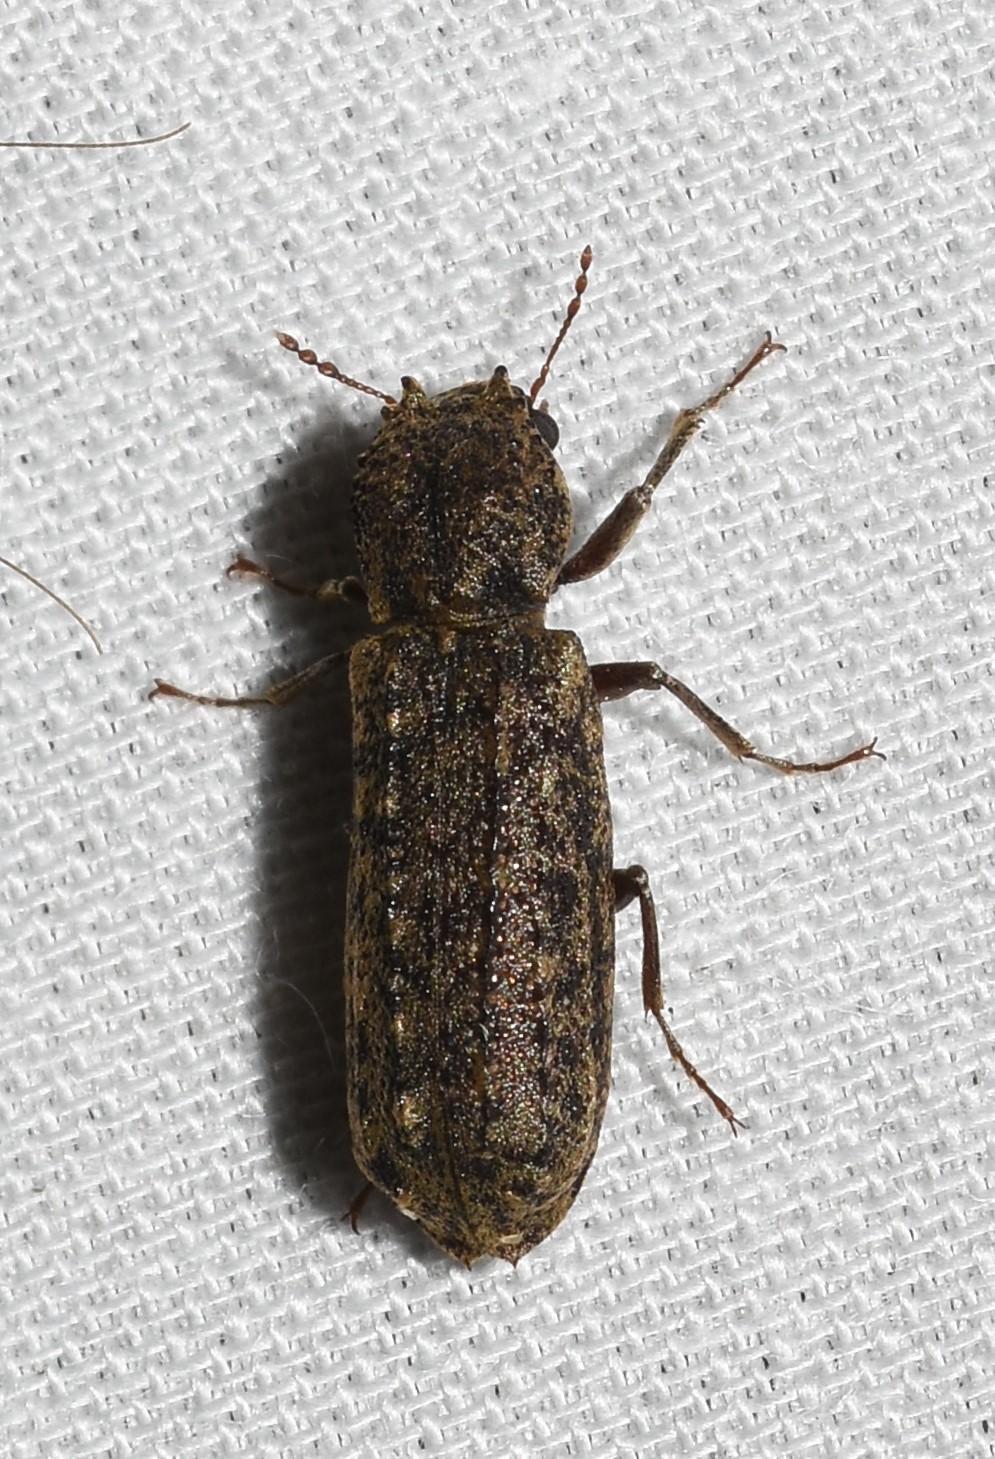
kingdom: Animalia
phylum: Arthropoda
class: Insecta
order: Coleoptera
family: Bostrichidae
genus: Lichenophanes
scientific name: Lichenophanes bicornis
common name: Two-horned powder-post beetle
